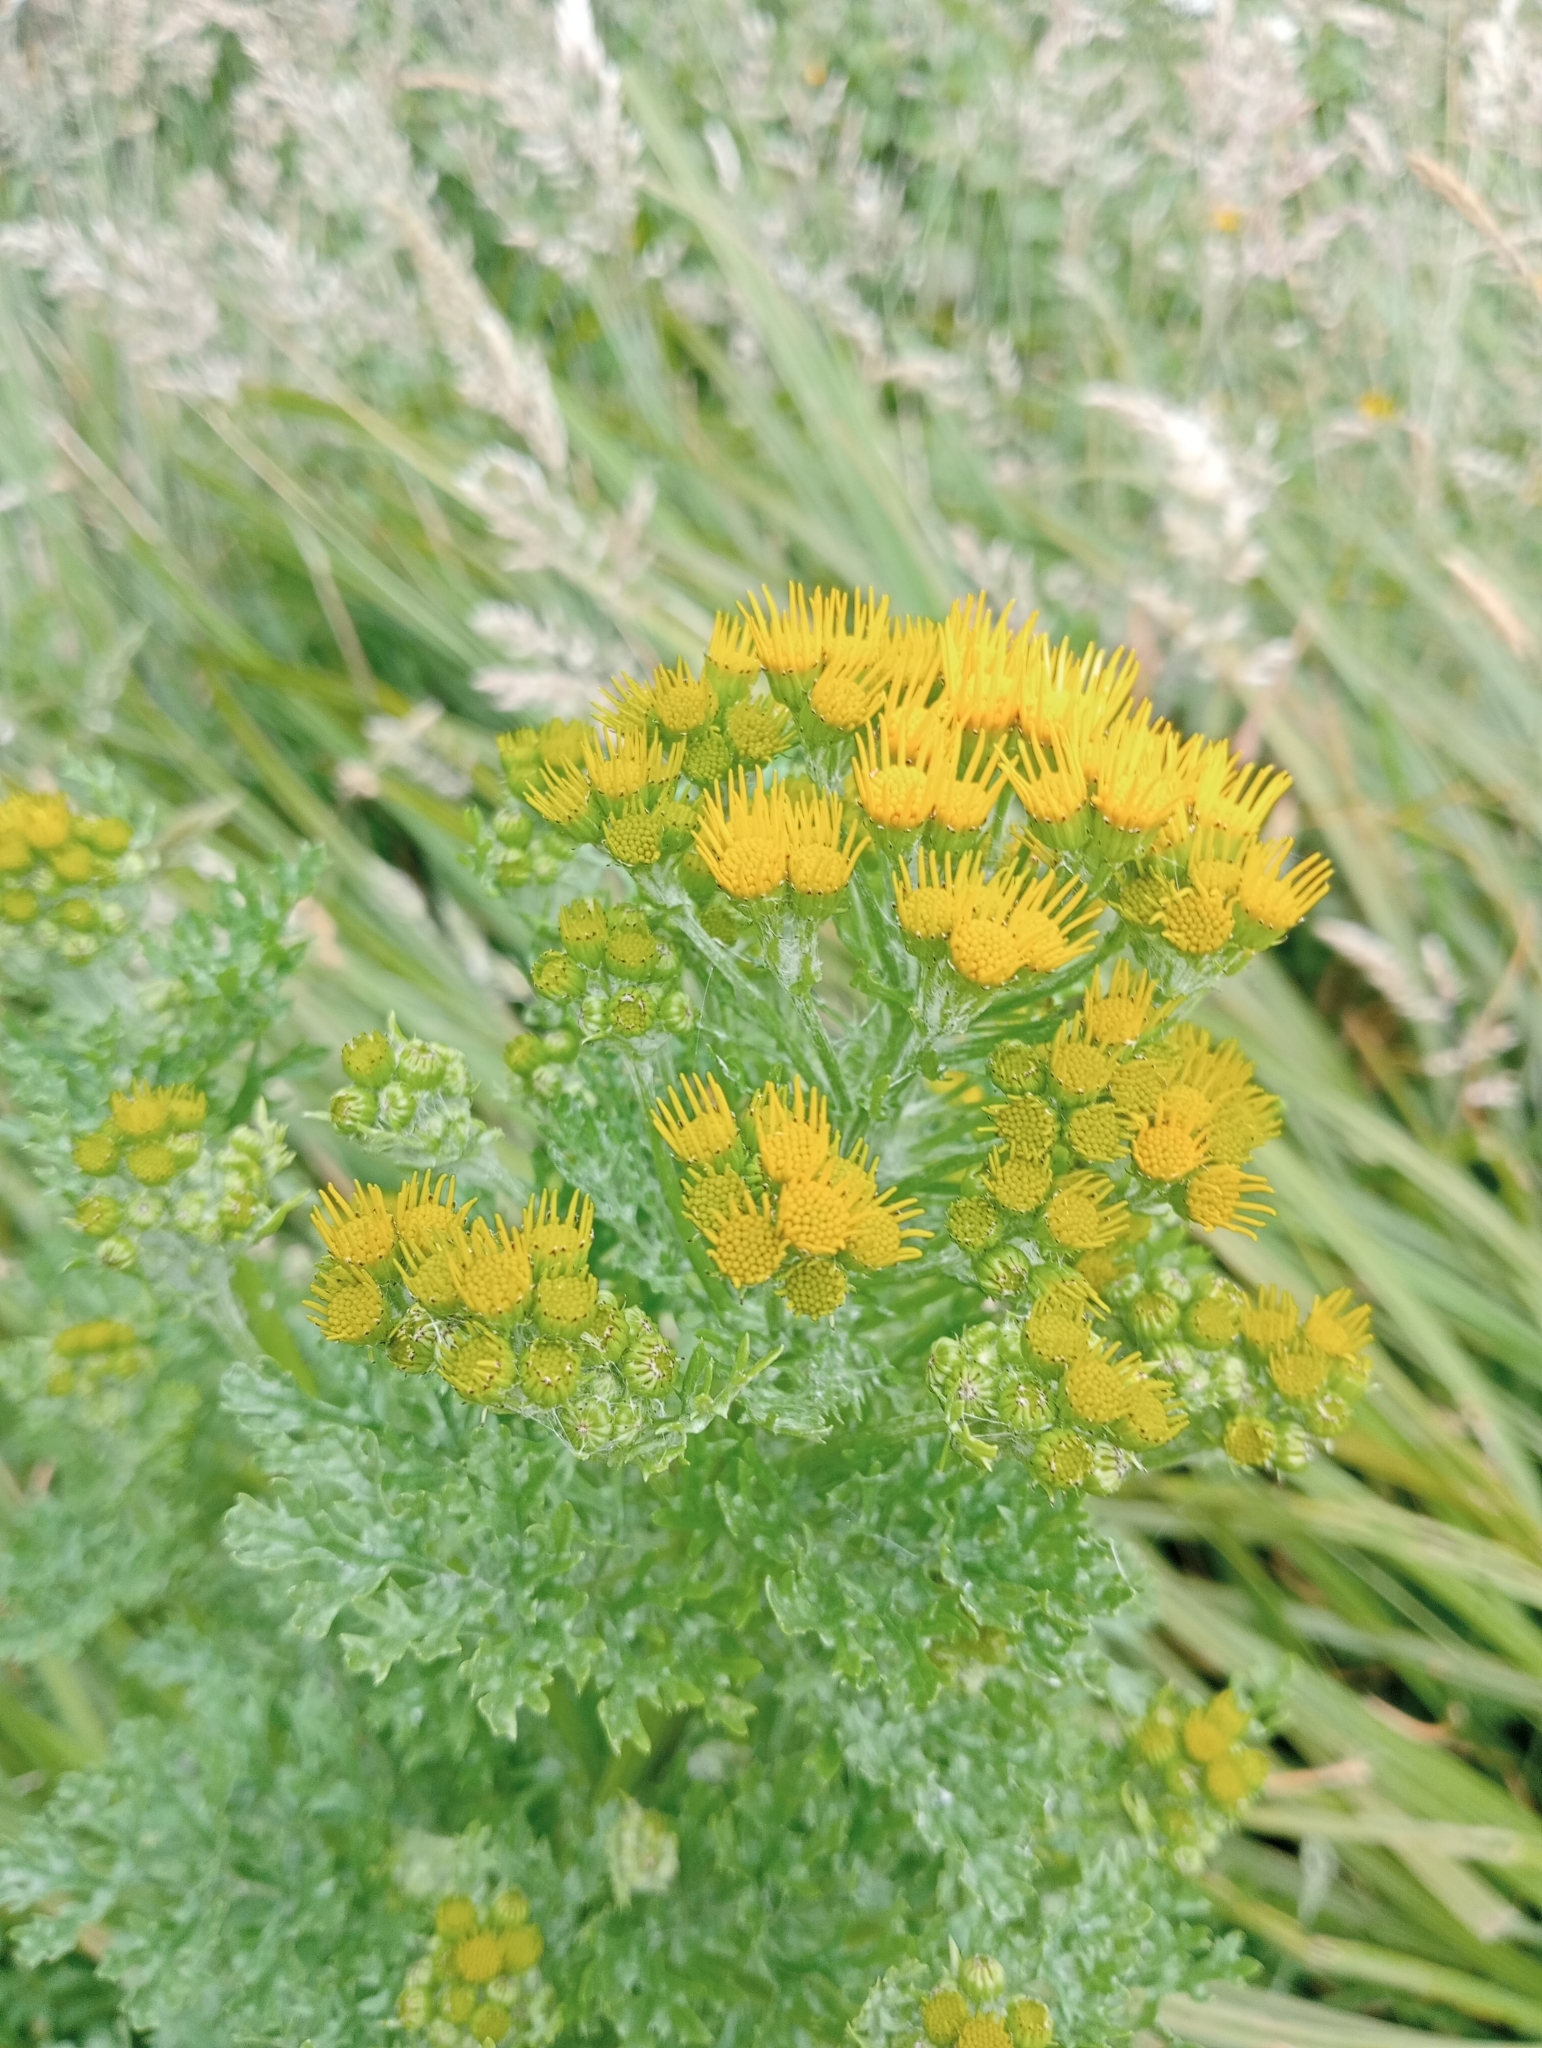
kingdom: Plantae
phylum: Tracheophyta
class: Magnoliopsida
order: Asterales
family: Asteraceae
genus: Jacobaea
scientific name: Jacobaea vulgaris
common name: Stinking willie
